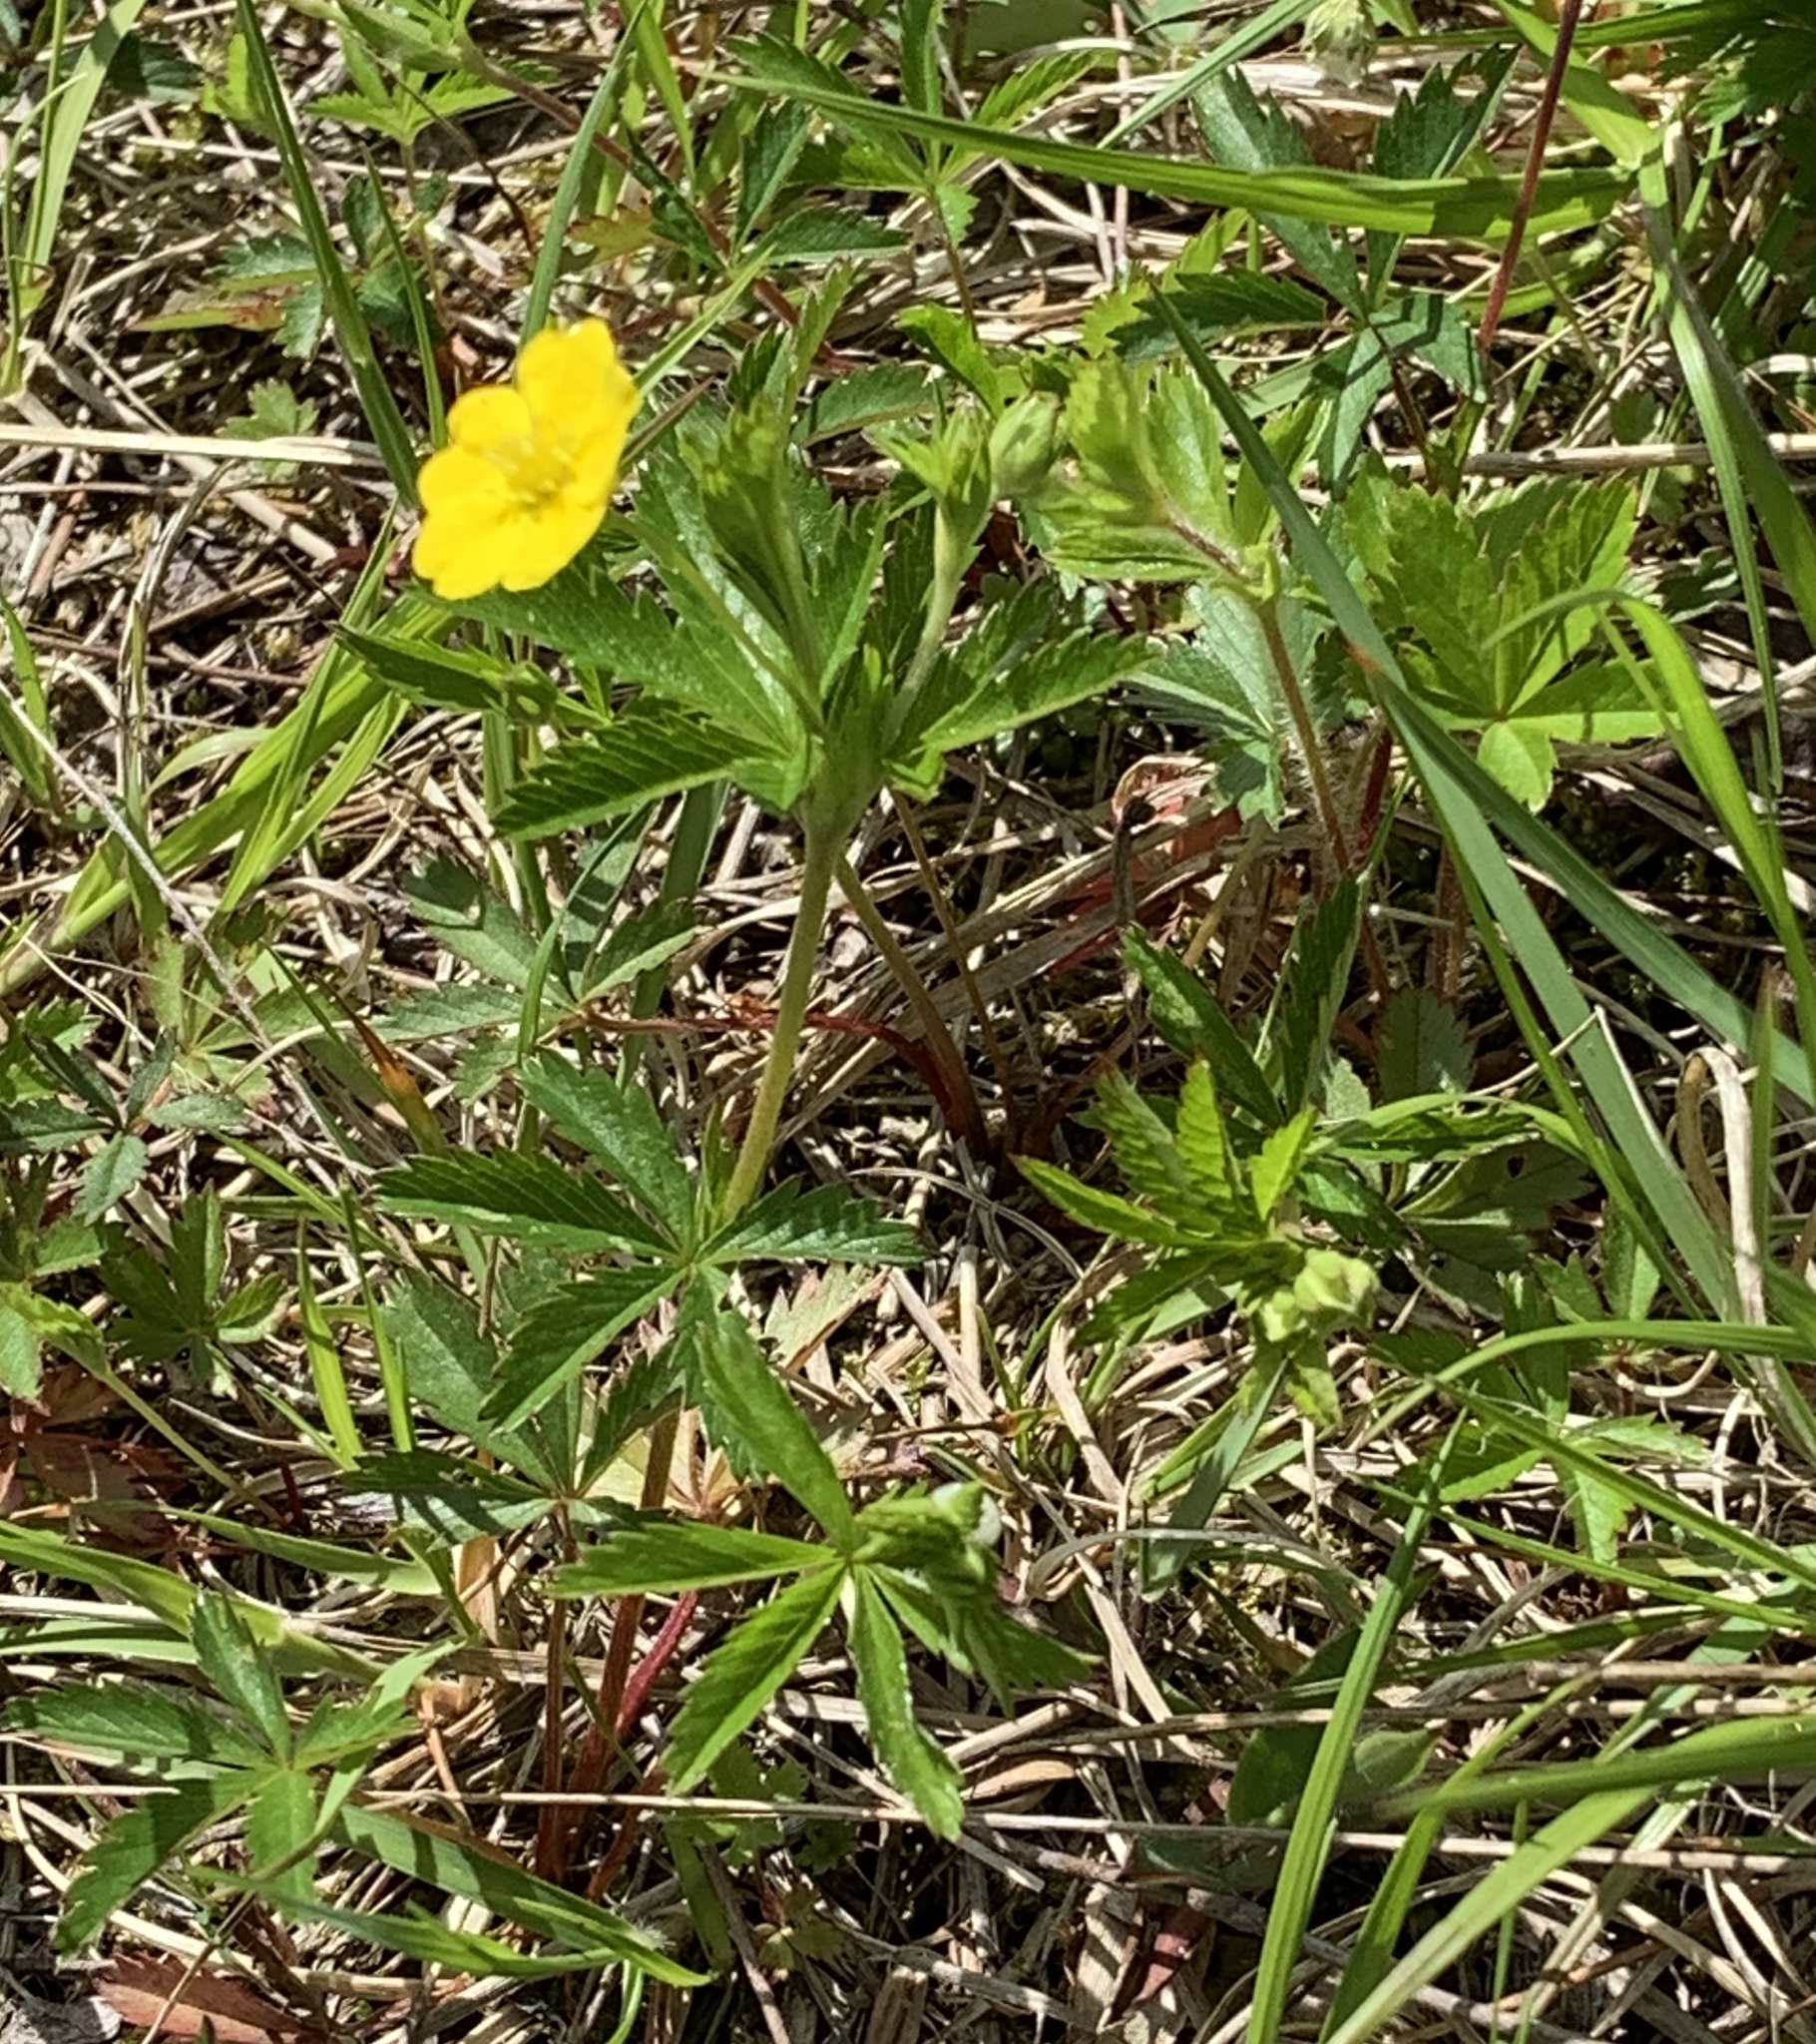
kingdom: Plantae
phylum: Tracheophyta
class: Magnoliopsida
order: Rosales
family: Rosaceae
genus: Potentilla
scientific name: Potentilla simplex
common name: Old field cinquefoil
